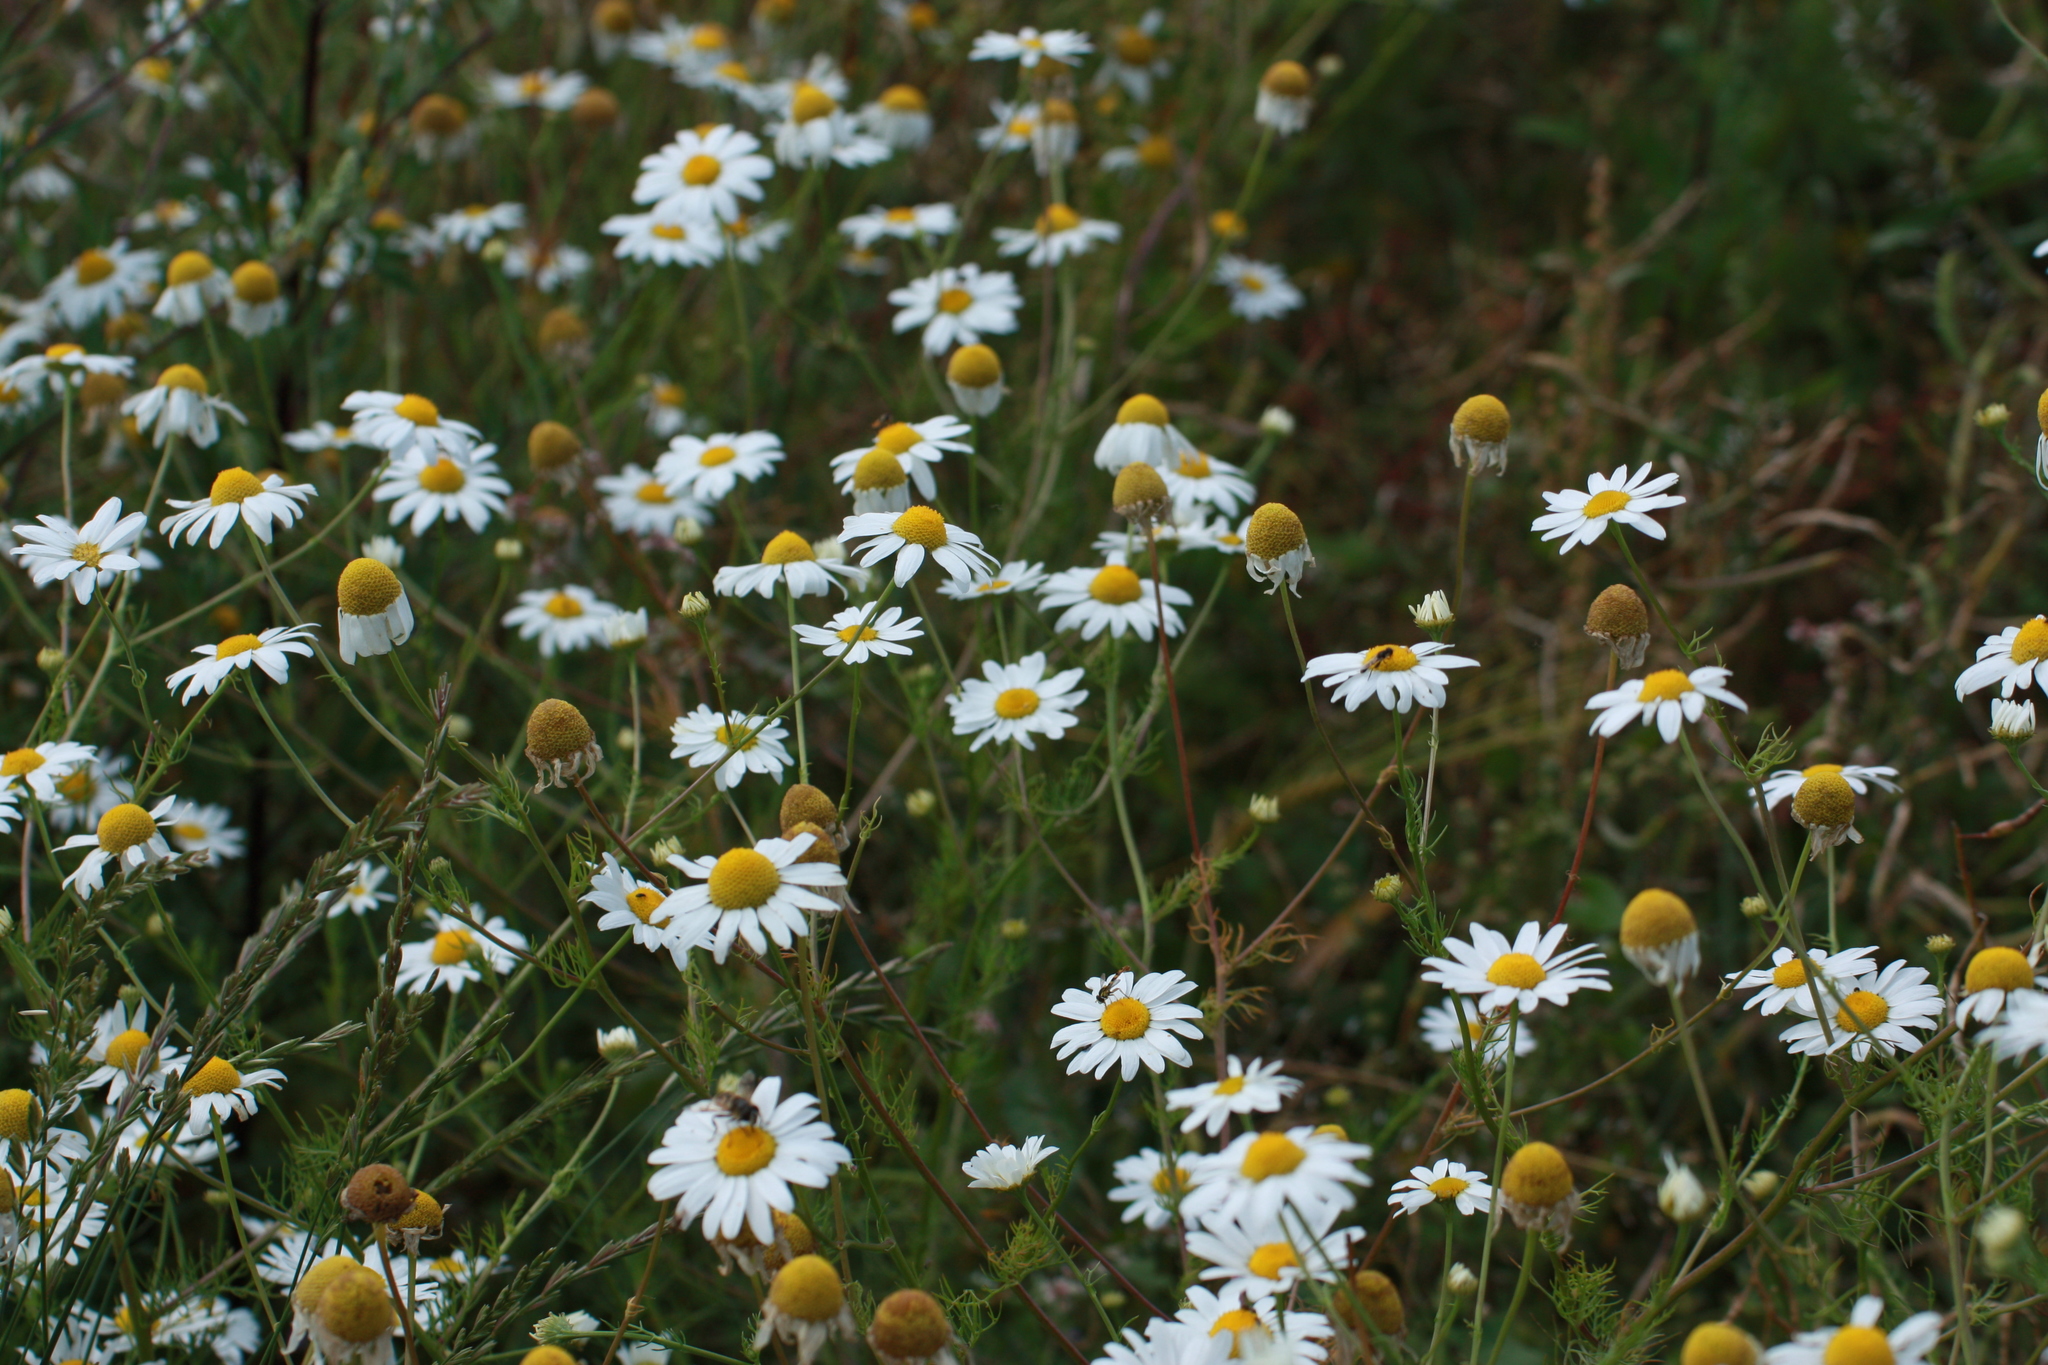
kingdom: Plantae
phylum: Tracheophyta
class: Magnoliopsida
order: Asterales
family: Asteraceae
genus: Tripleurospermum
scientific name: Tripleurospermum inodorum
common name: Scentless mayweed
